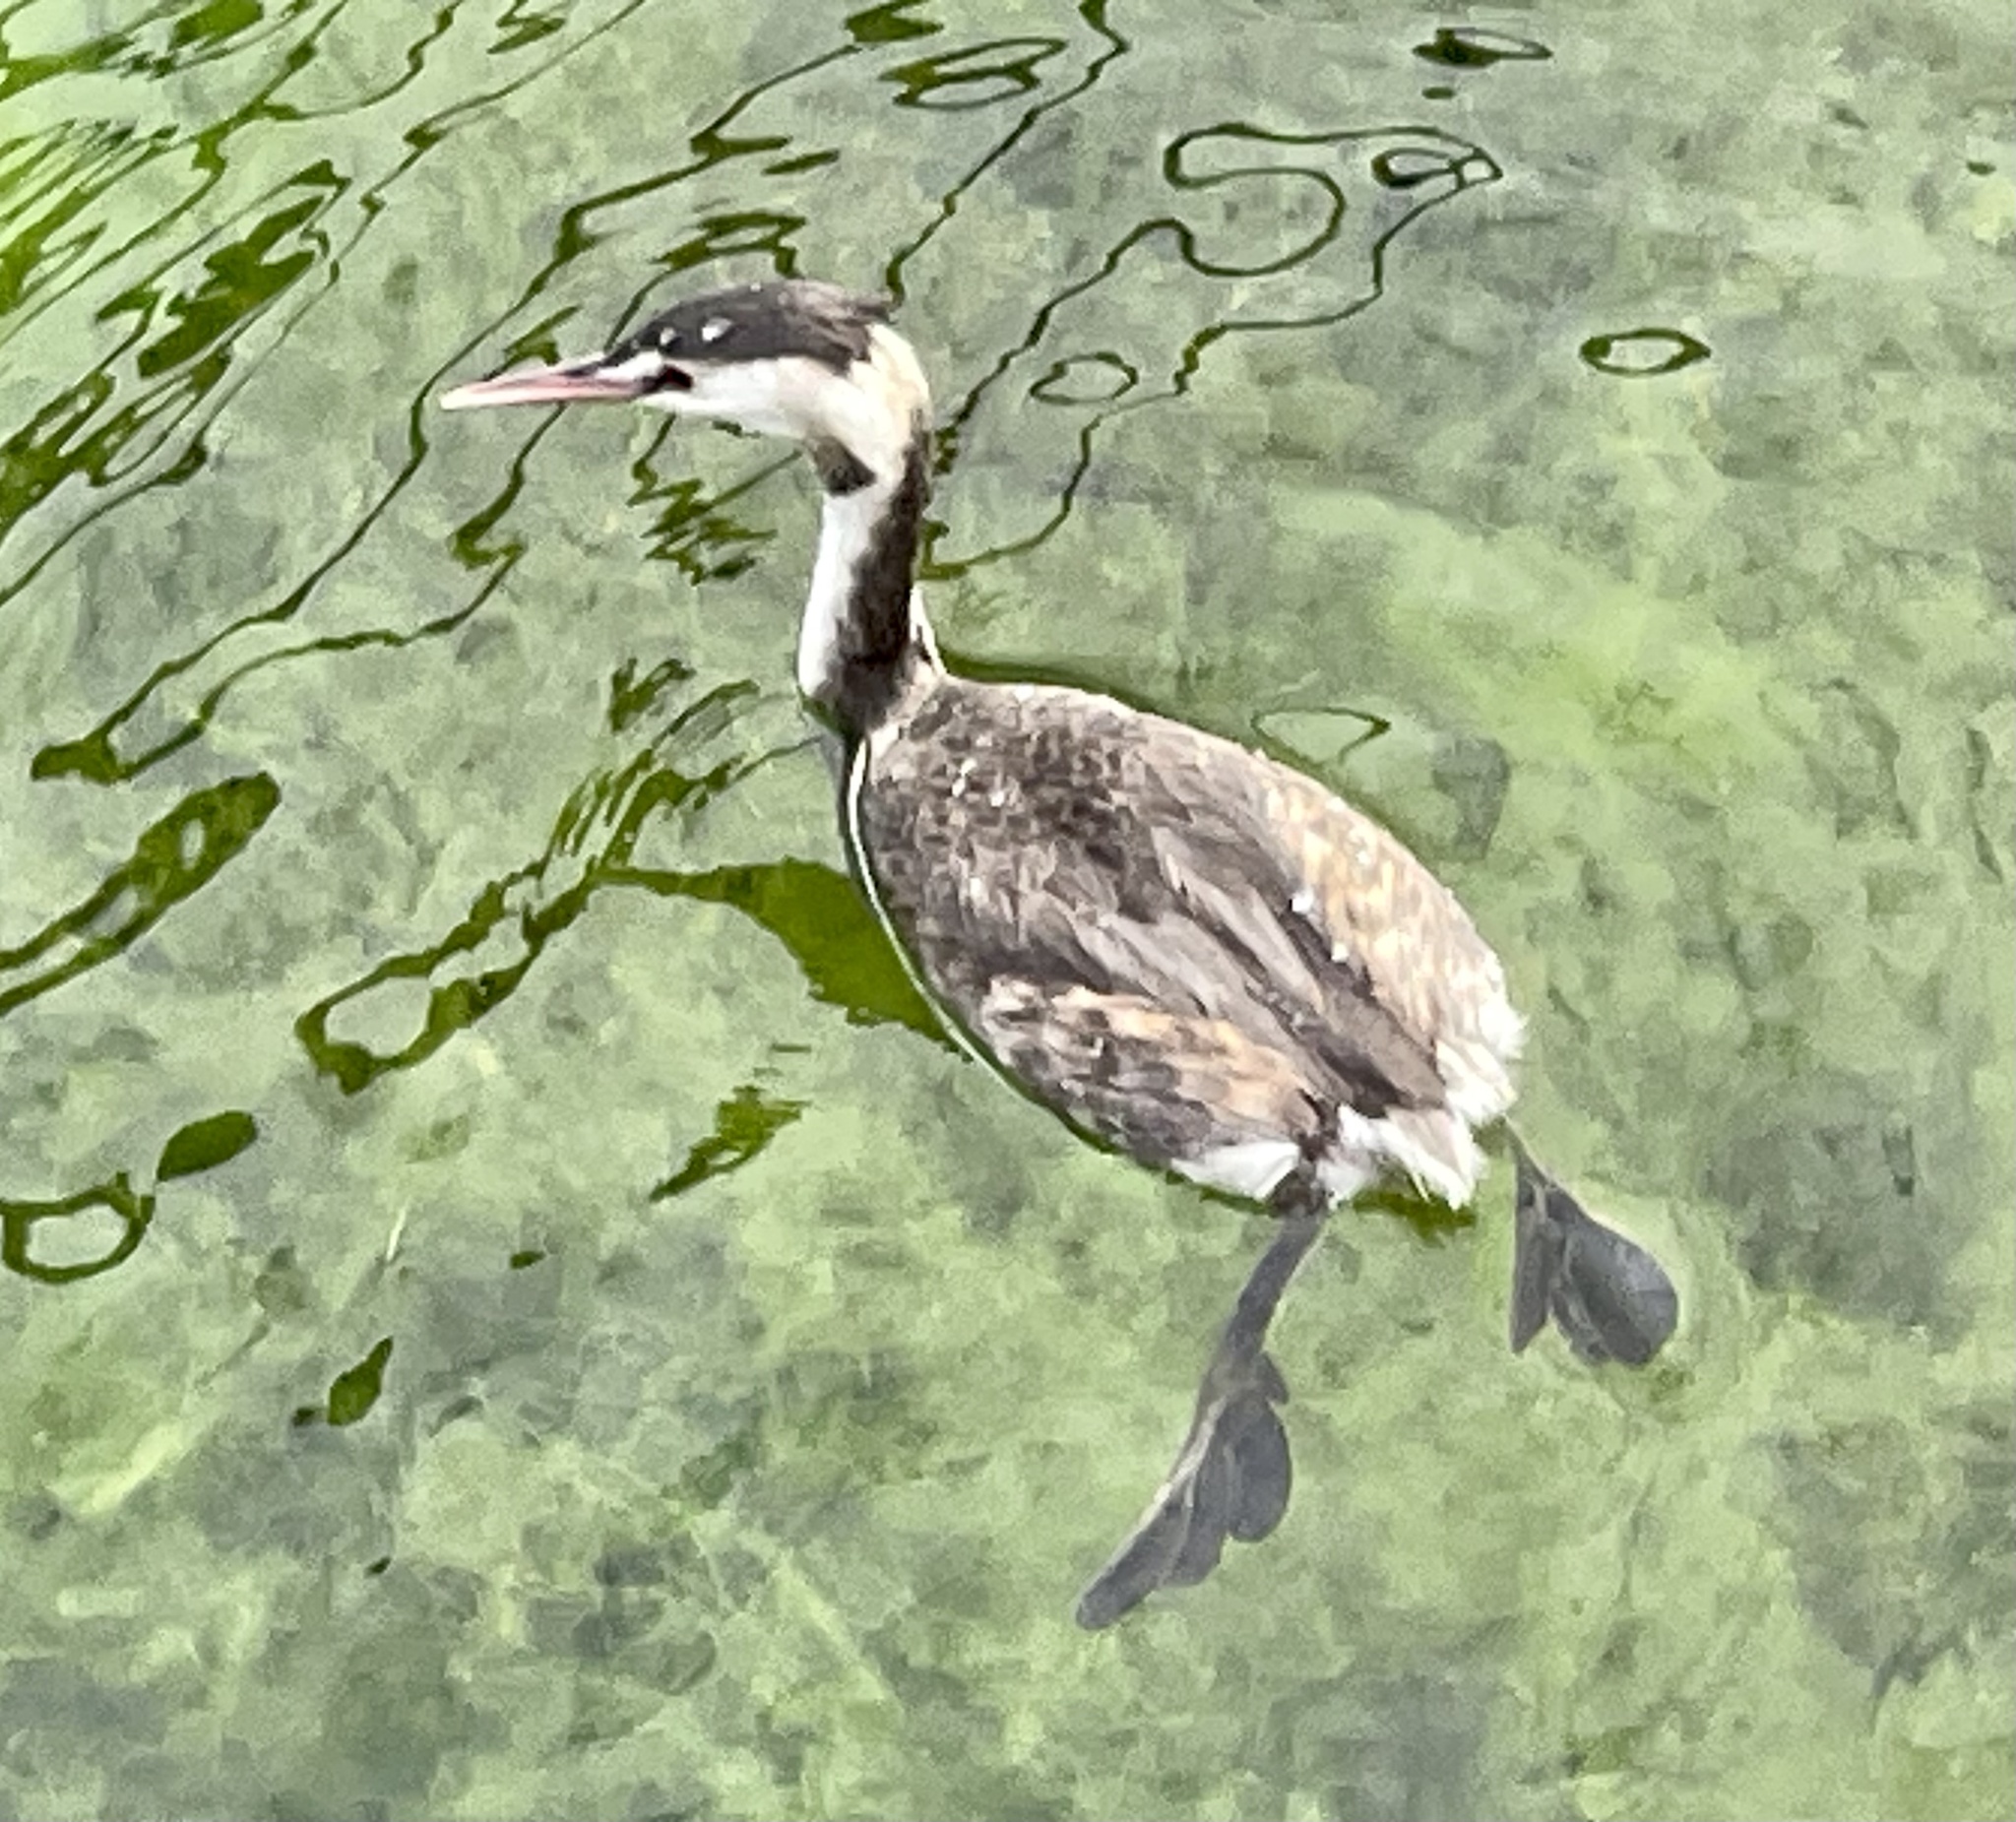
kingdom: Animalia
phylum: Chordata
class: Aves
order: Podicipediformes
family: Podicipedidae
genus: Podiceps
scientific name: Podiceps cristatus
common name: Great crested grebe
